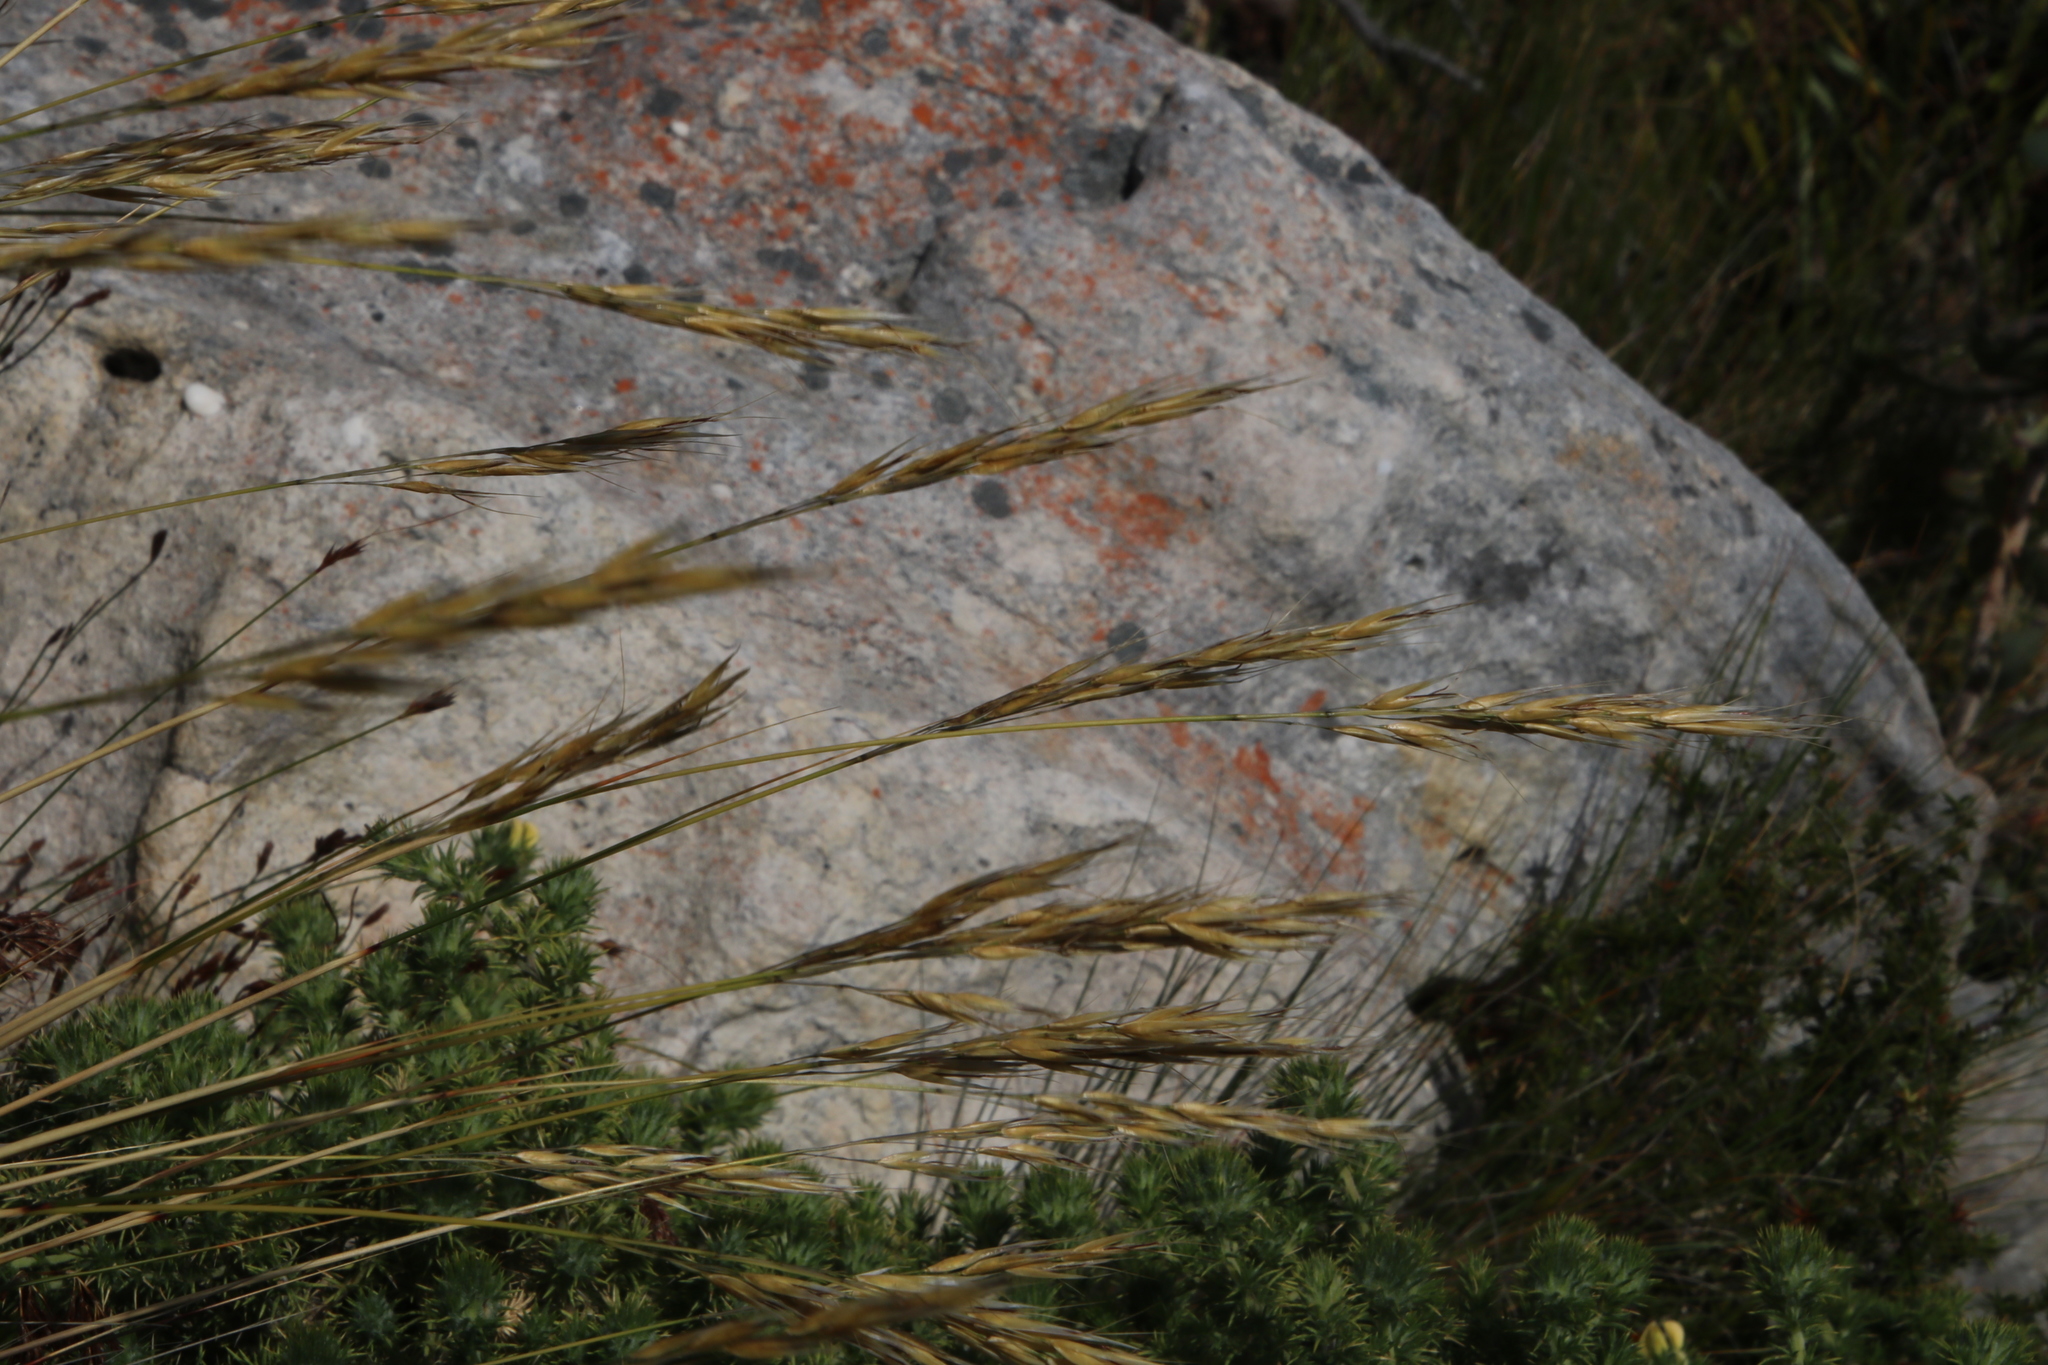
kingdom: Plantae
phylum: Tracheophyta
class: Liliopsida
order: Poales
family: Poaceae
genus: Pseudopentameris
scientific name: Pseudopentameris macrantha
